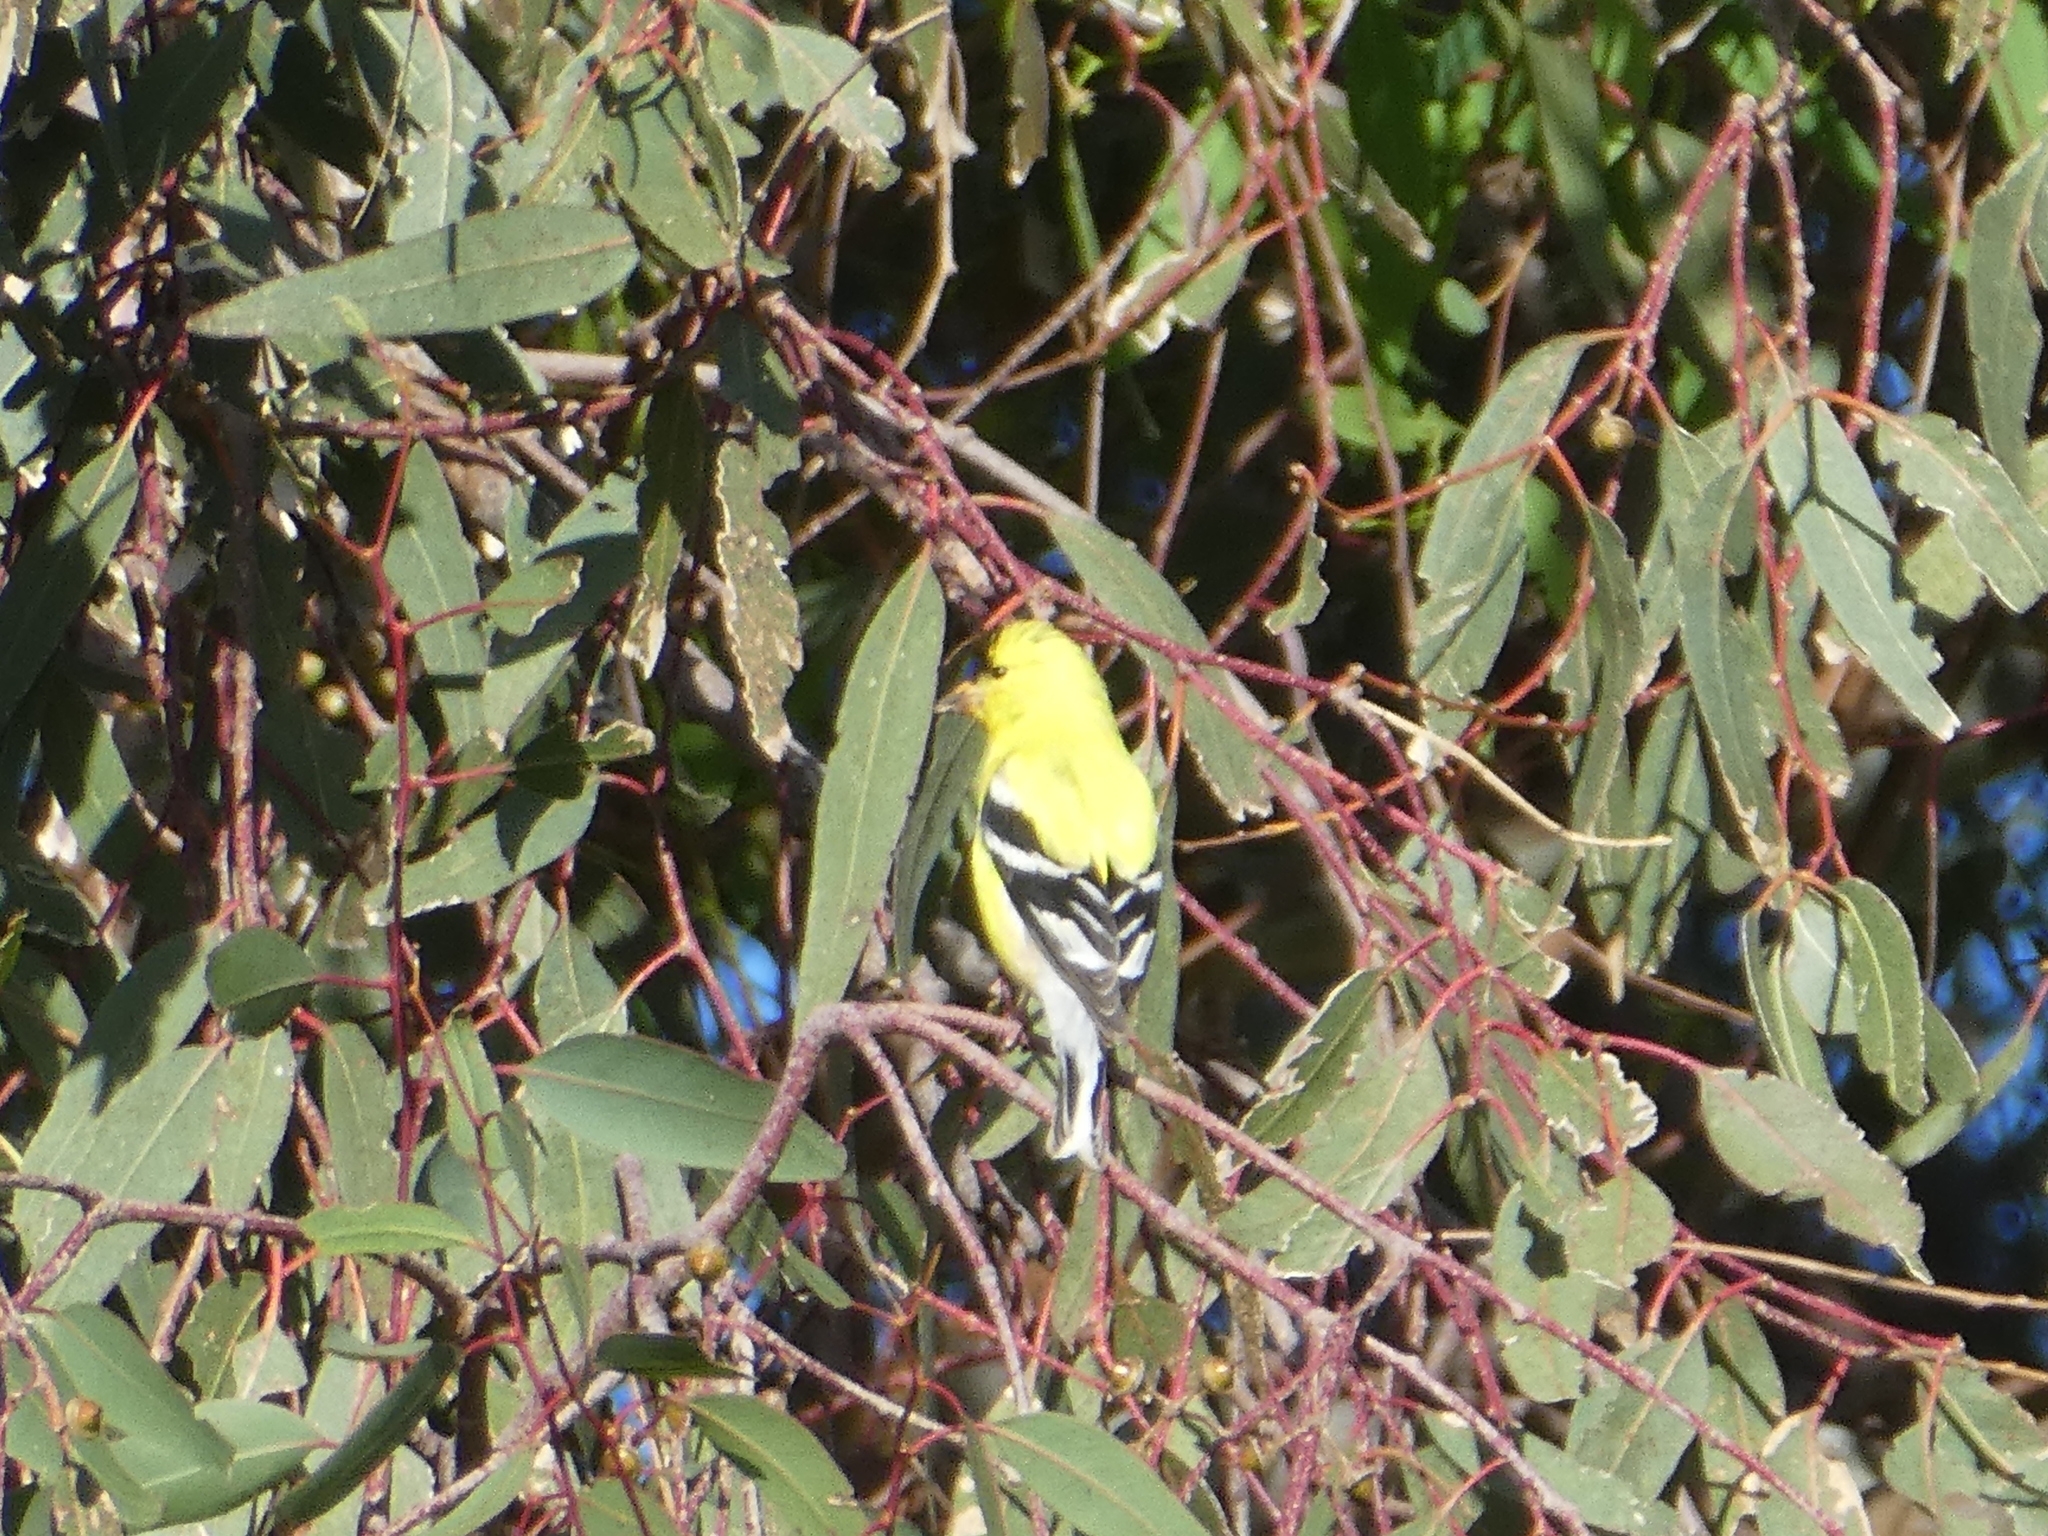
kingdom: Animalia
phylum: Chordata
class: Aves
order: Passeriformes
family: Fringillidae
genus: Spinus
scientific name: Spinus tristis
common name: American goldfinch
